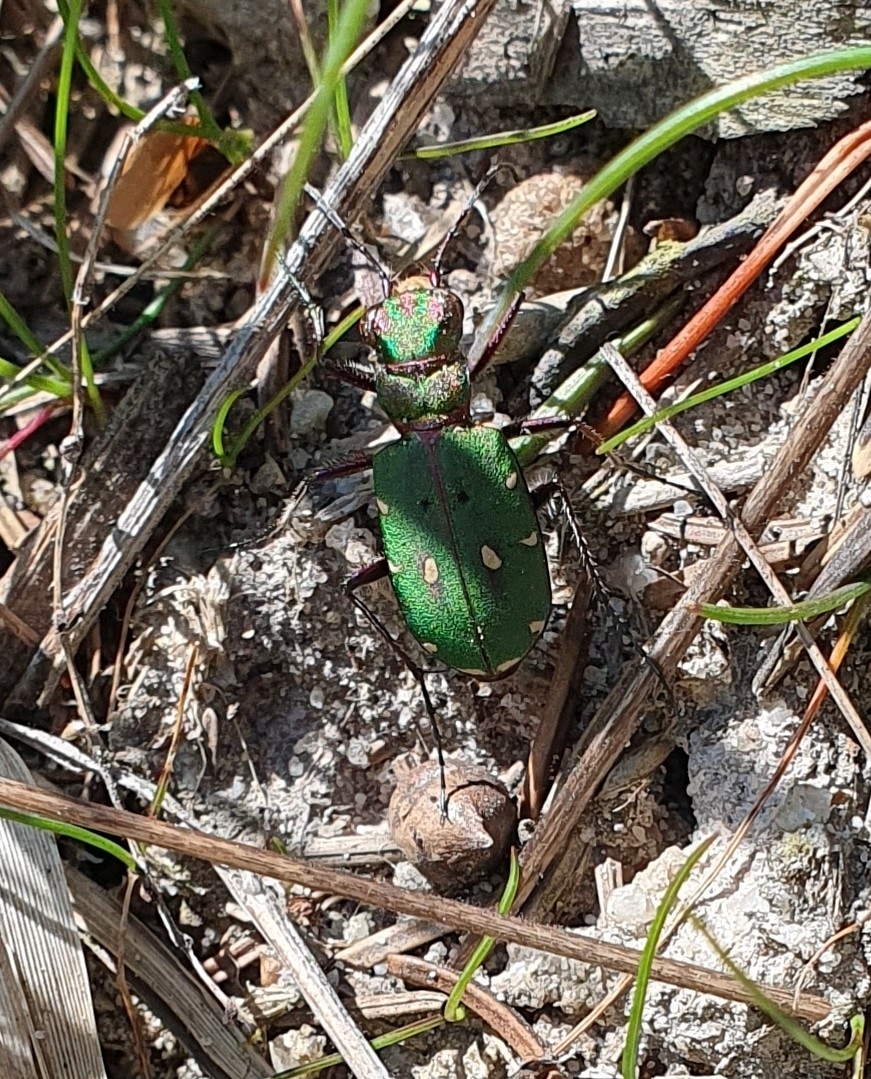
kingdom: Animalia
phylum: Arthropoda
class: Insecta
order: Coleoptera
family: Carabidae
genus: Cicindela
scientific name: Cicindela campestris
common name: Common tiger beetle
